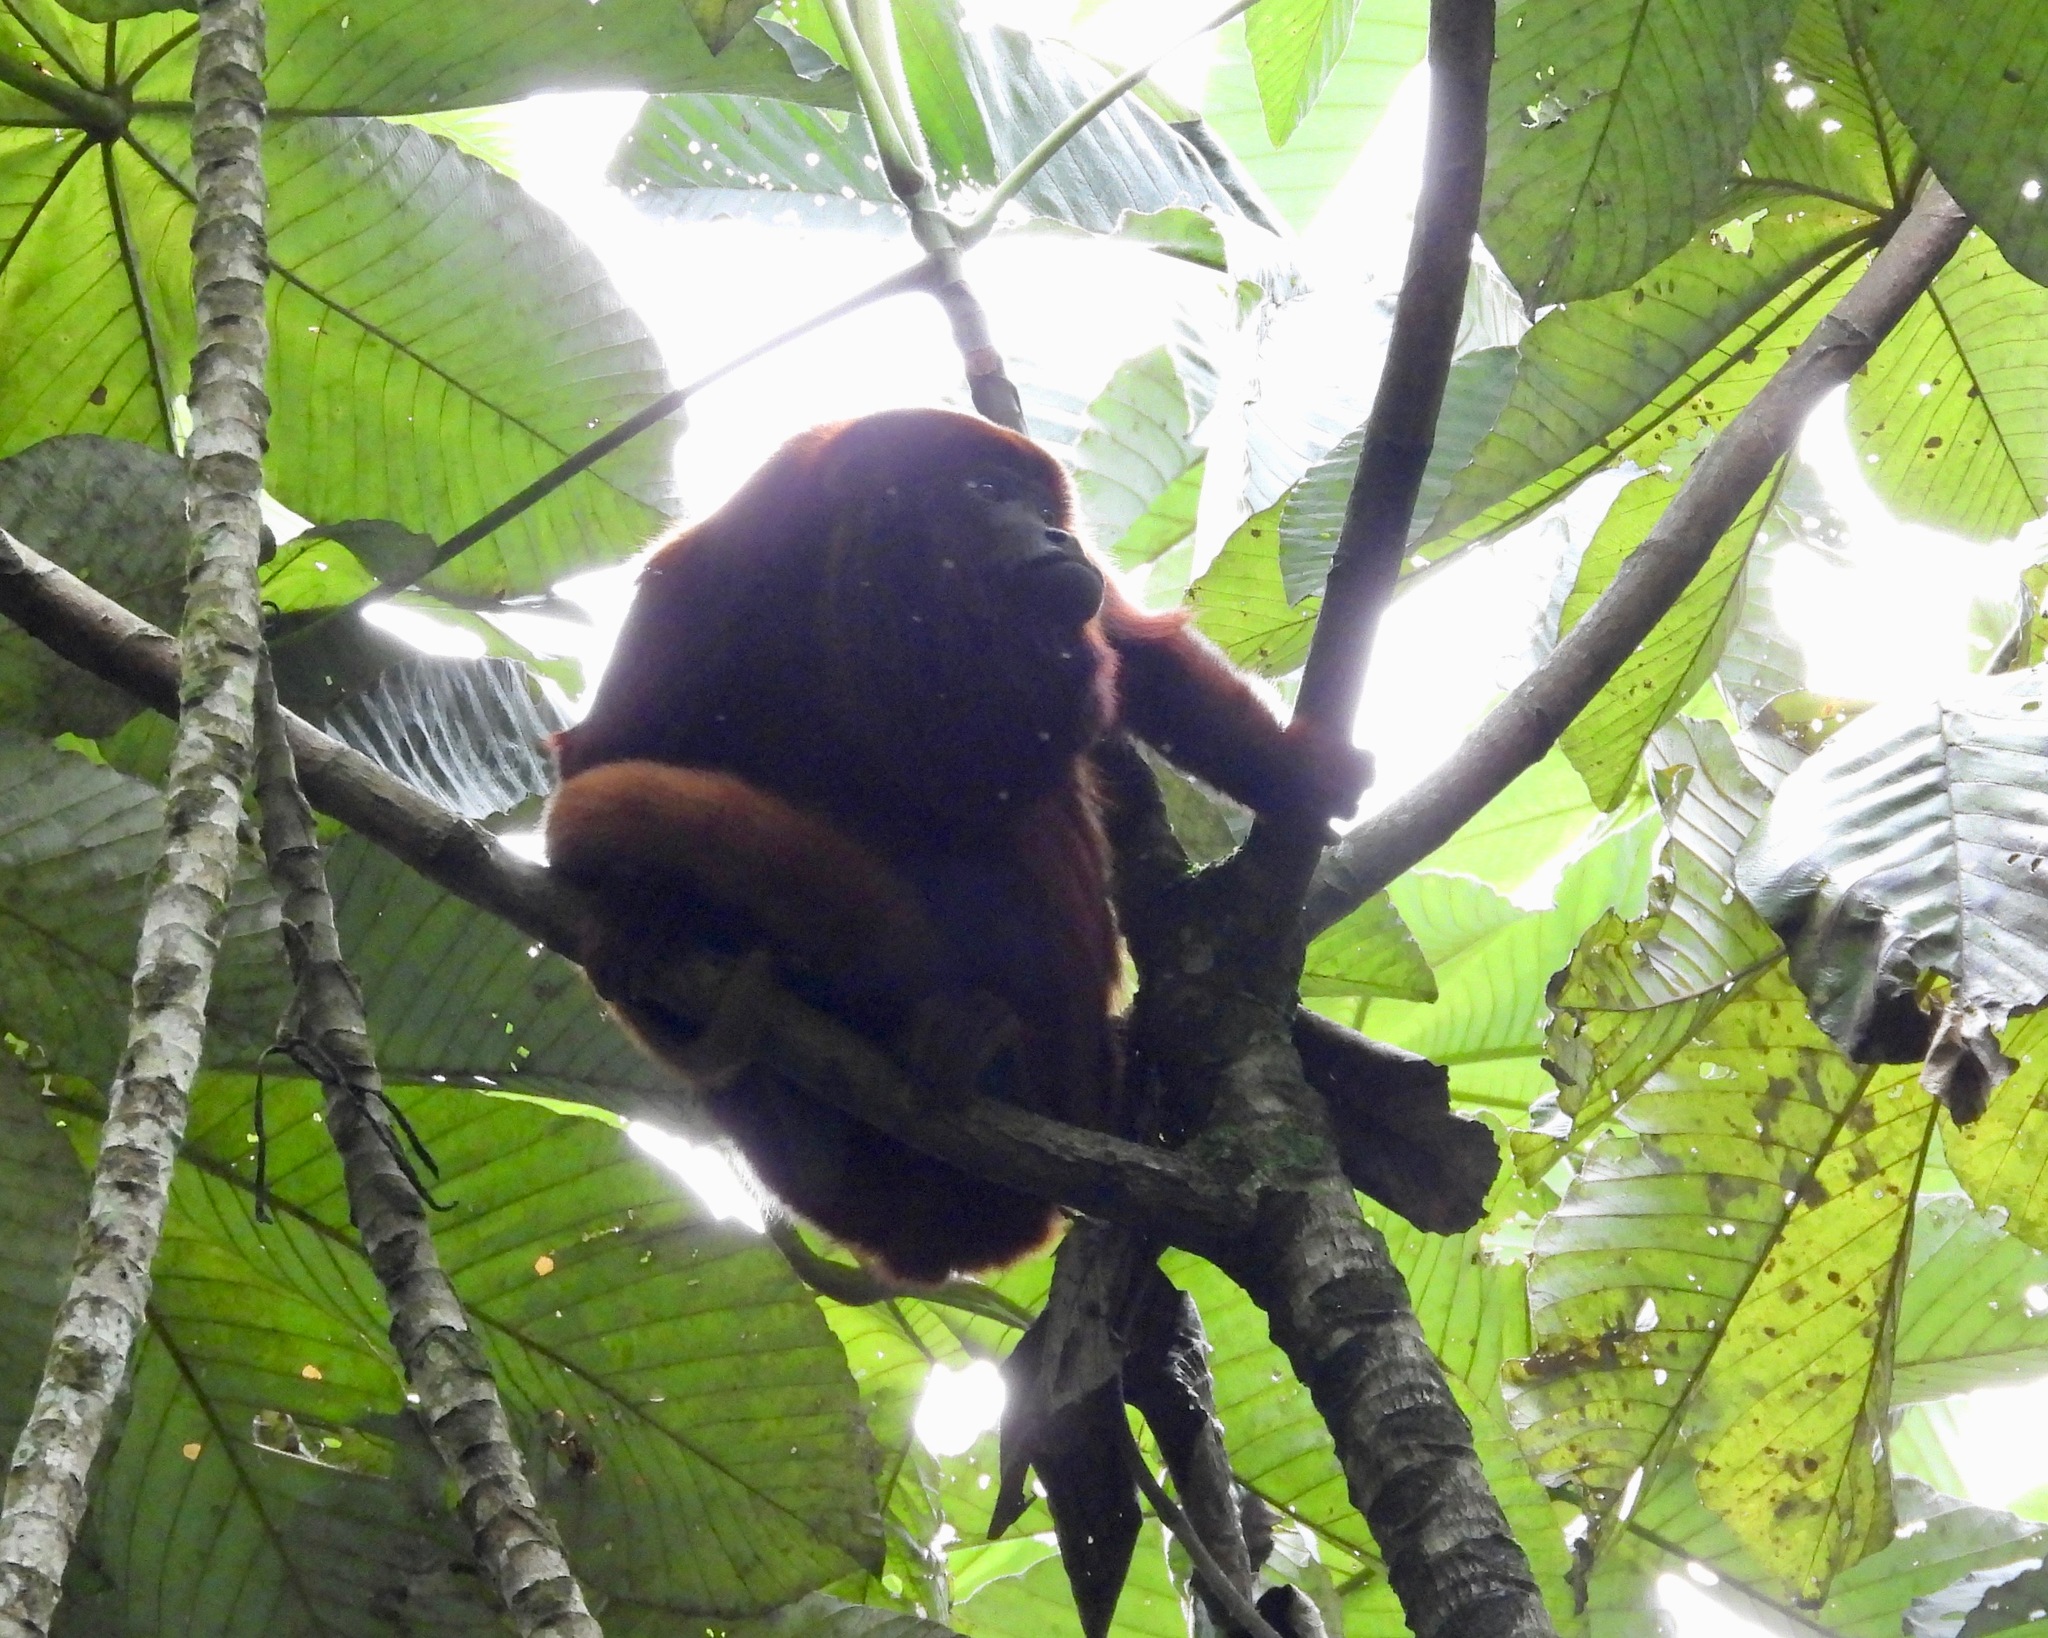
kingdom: Animalia
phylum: Chordata
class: Mammalia
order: Primates
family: Atelidae
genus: Alouatta
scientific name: Alouatta seniculus
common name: Venezuelan red howler
